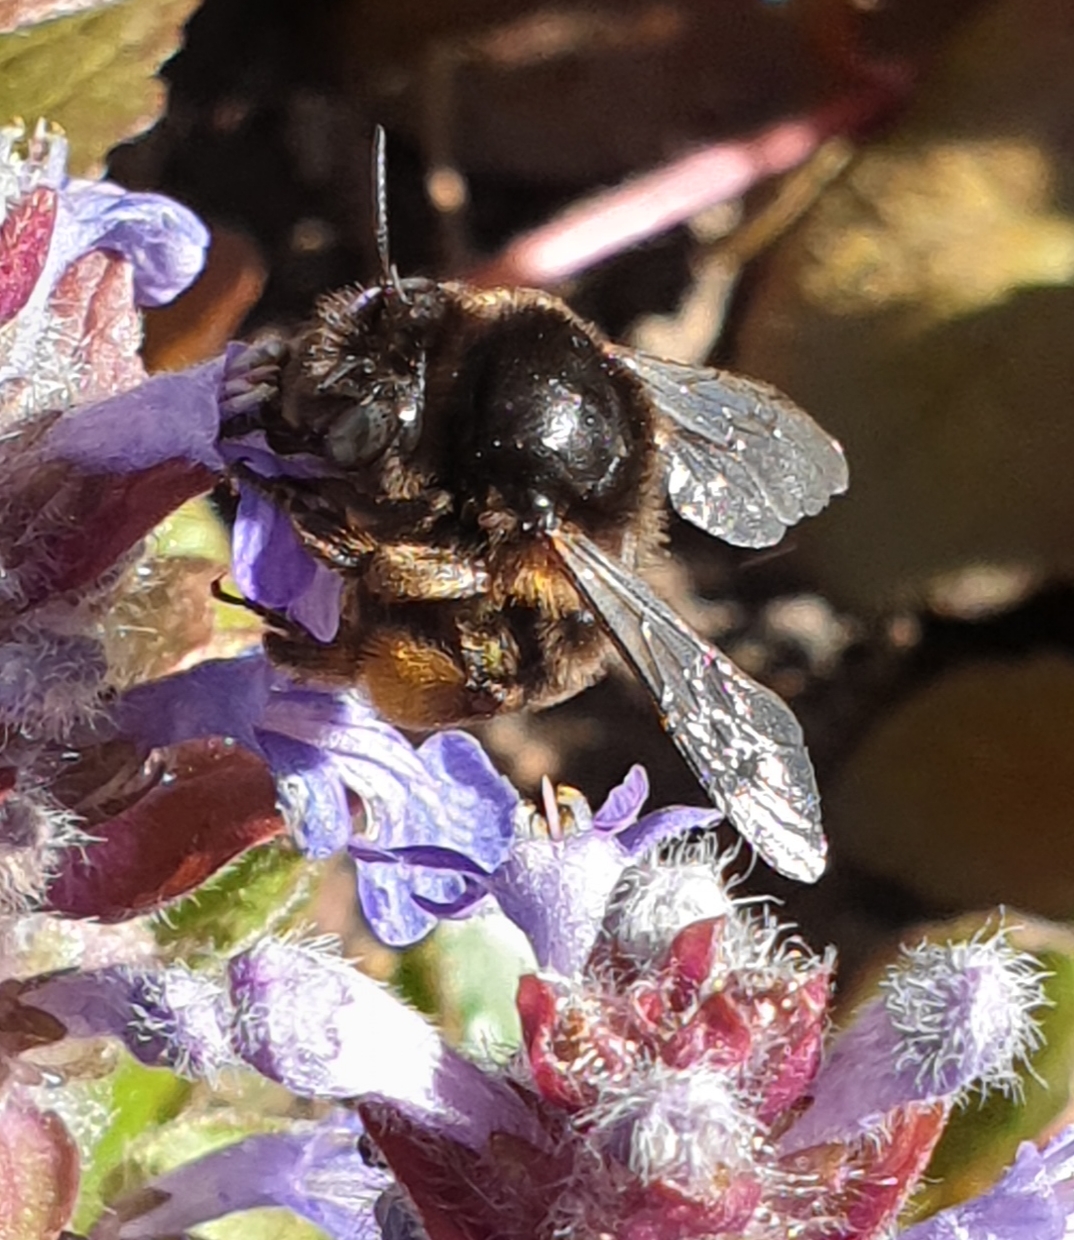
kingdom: Animalia
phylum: Arthropoda
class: Insecta
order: Hymenoptera
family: Apidae
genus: Anthophora
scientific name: Anthophora retusa
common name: Potter flower bee
